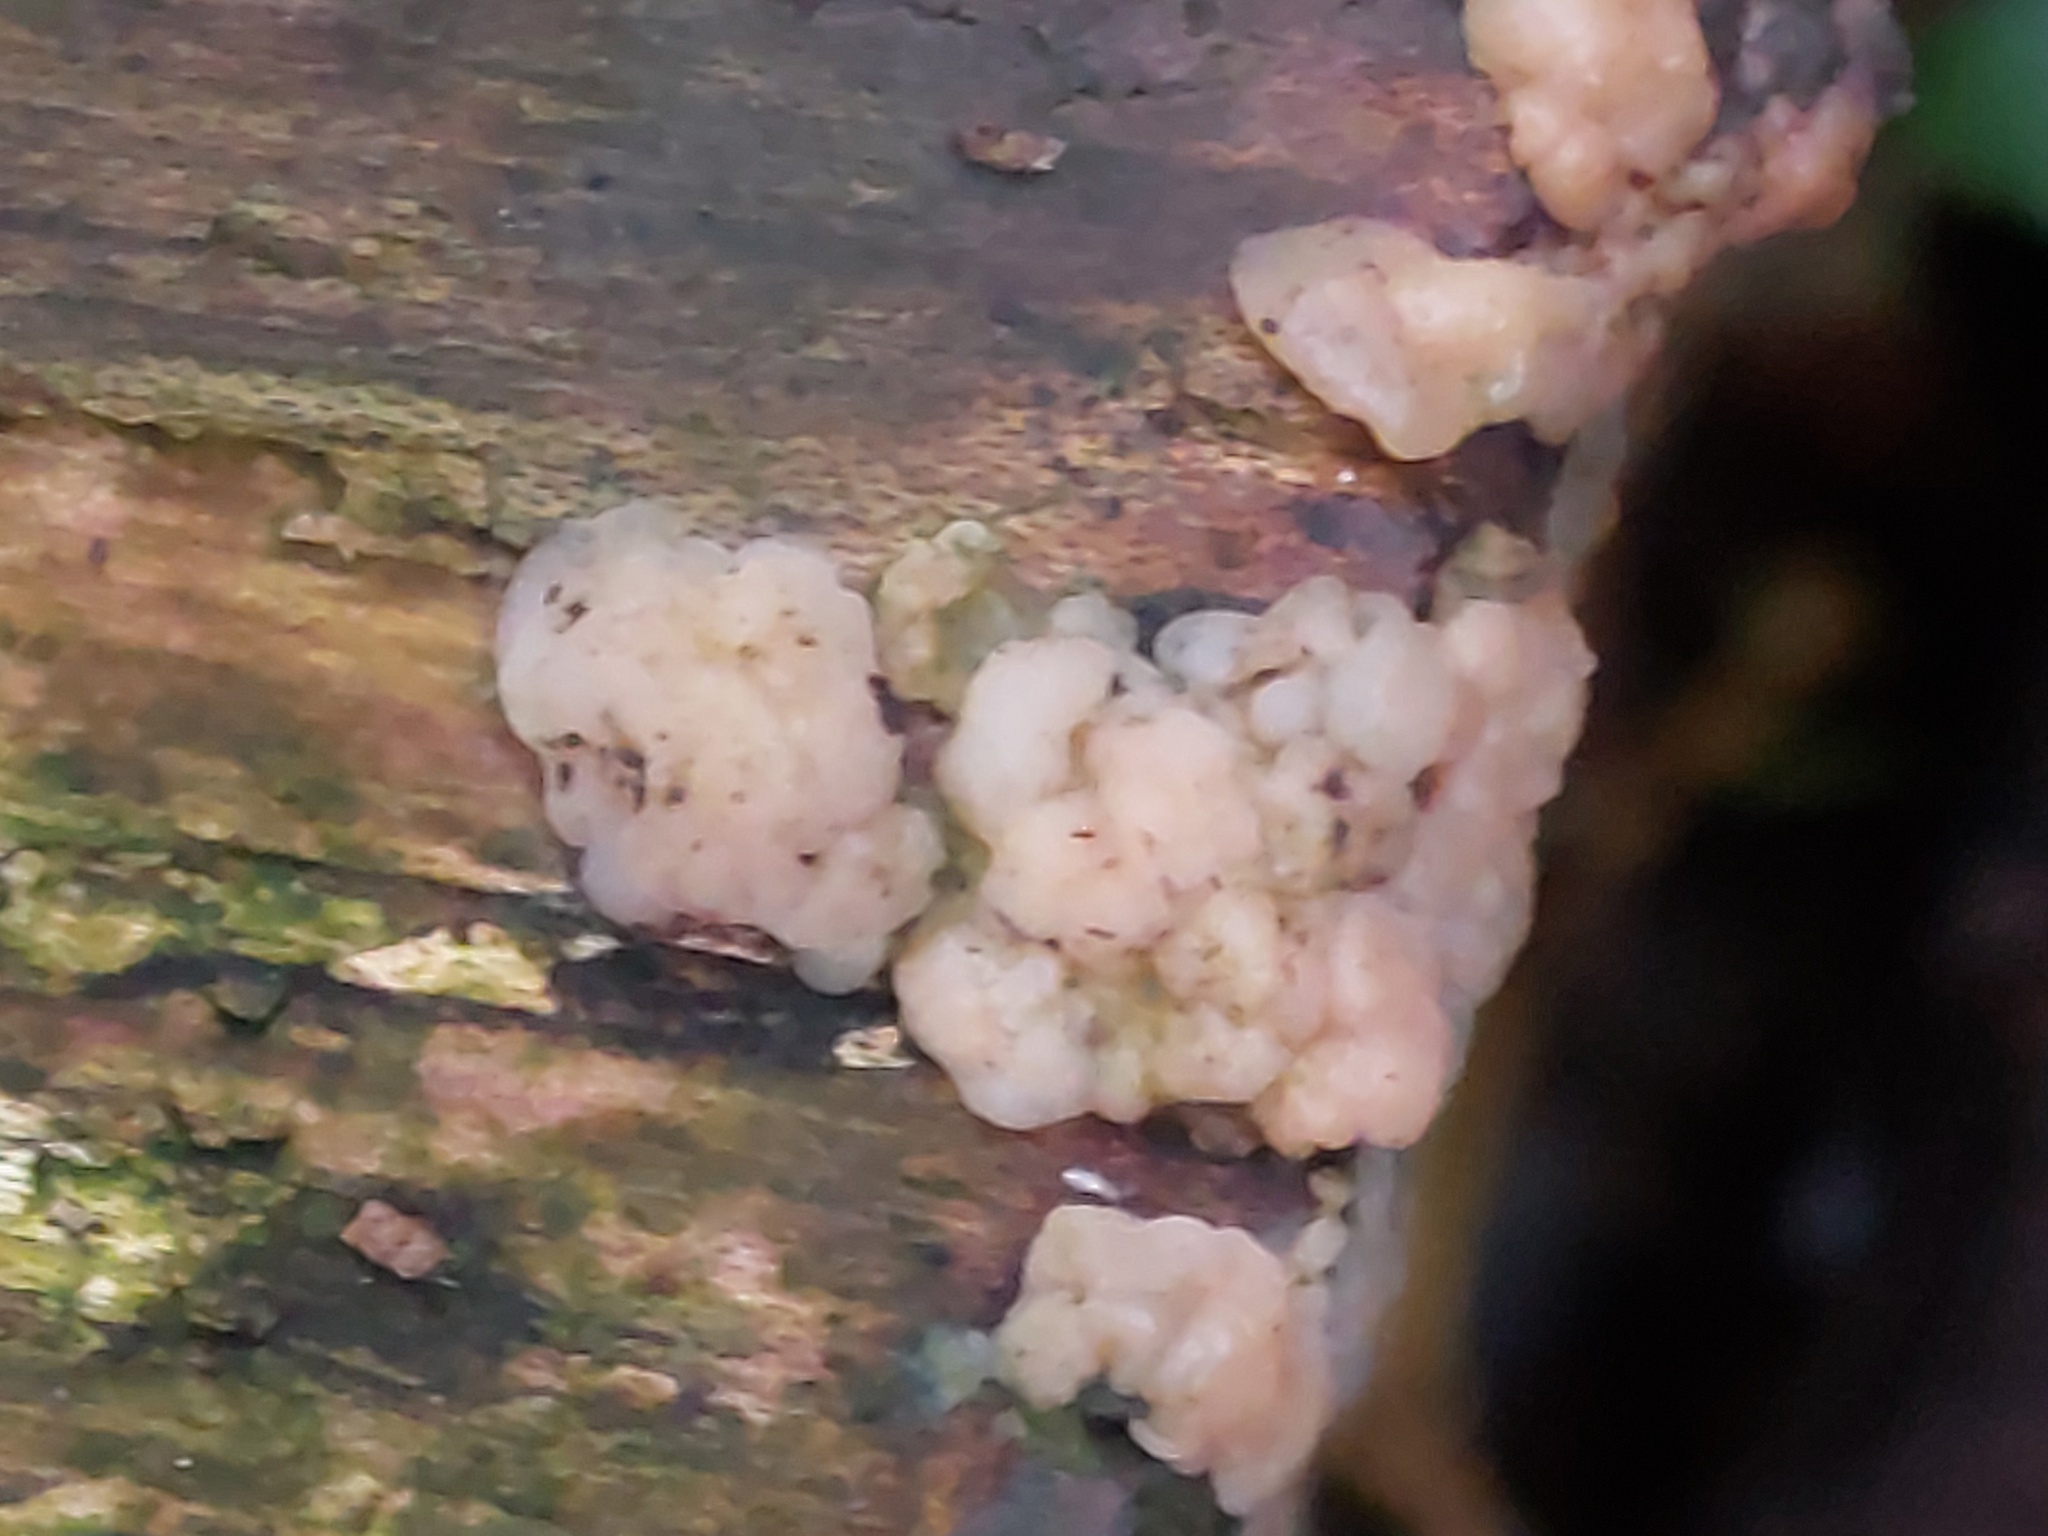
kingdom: Fungi
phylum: Basidiomycota
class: Agaricomycetes
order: Auriculariales
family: Hyaloriaceae
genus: Myxarium
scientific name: Myxarium nucleatum
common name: Crystal brain fungus
